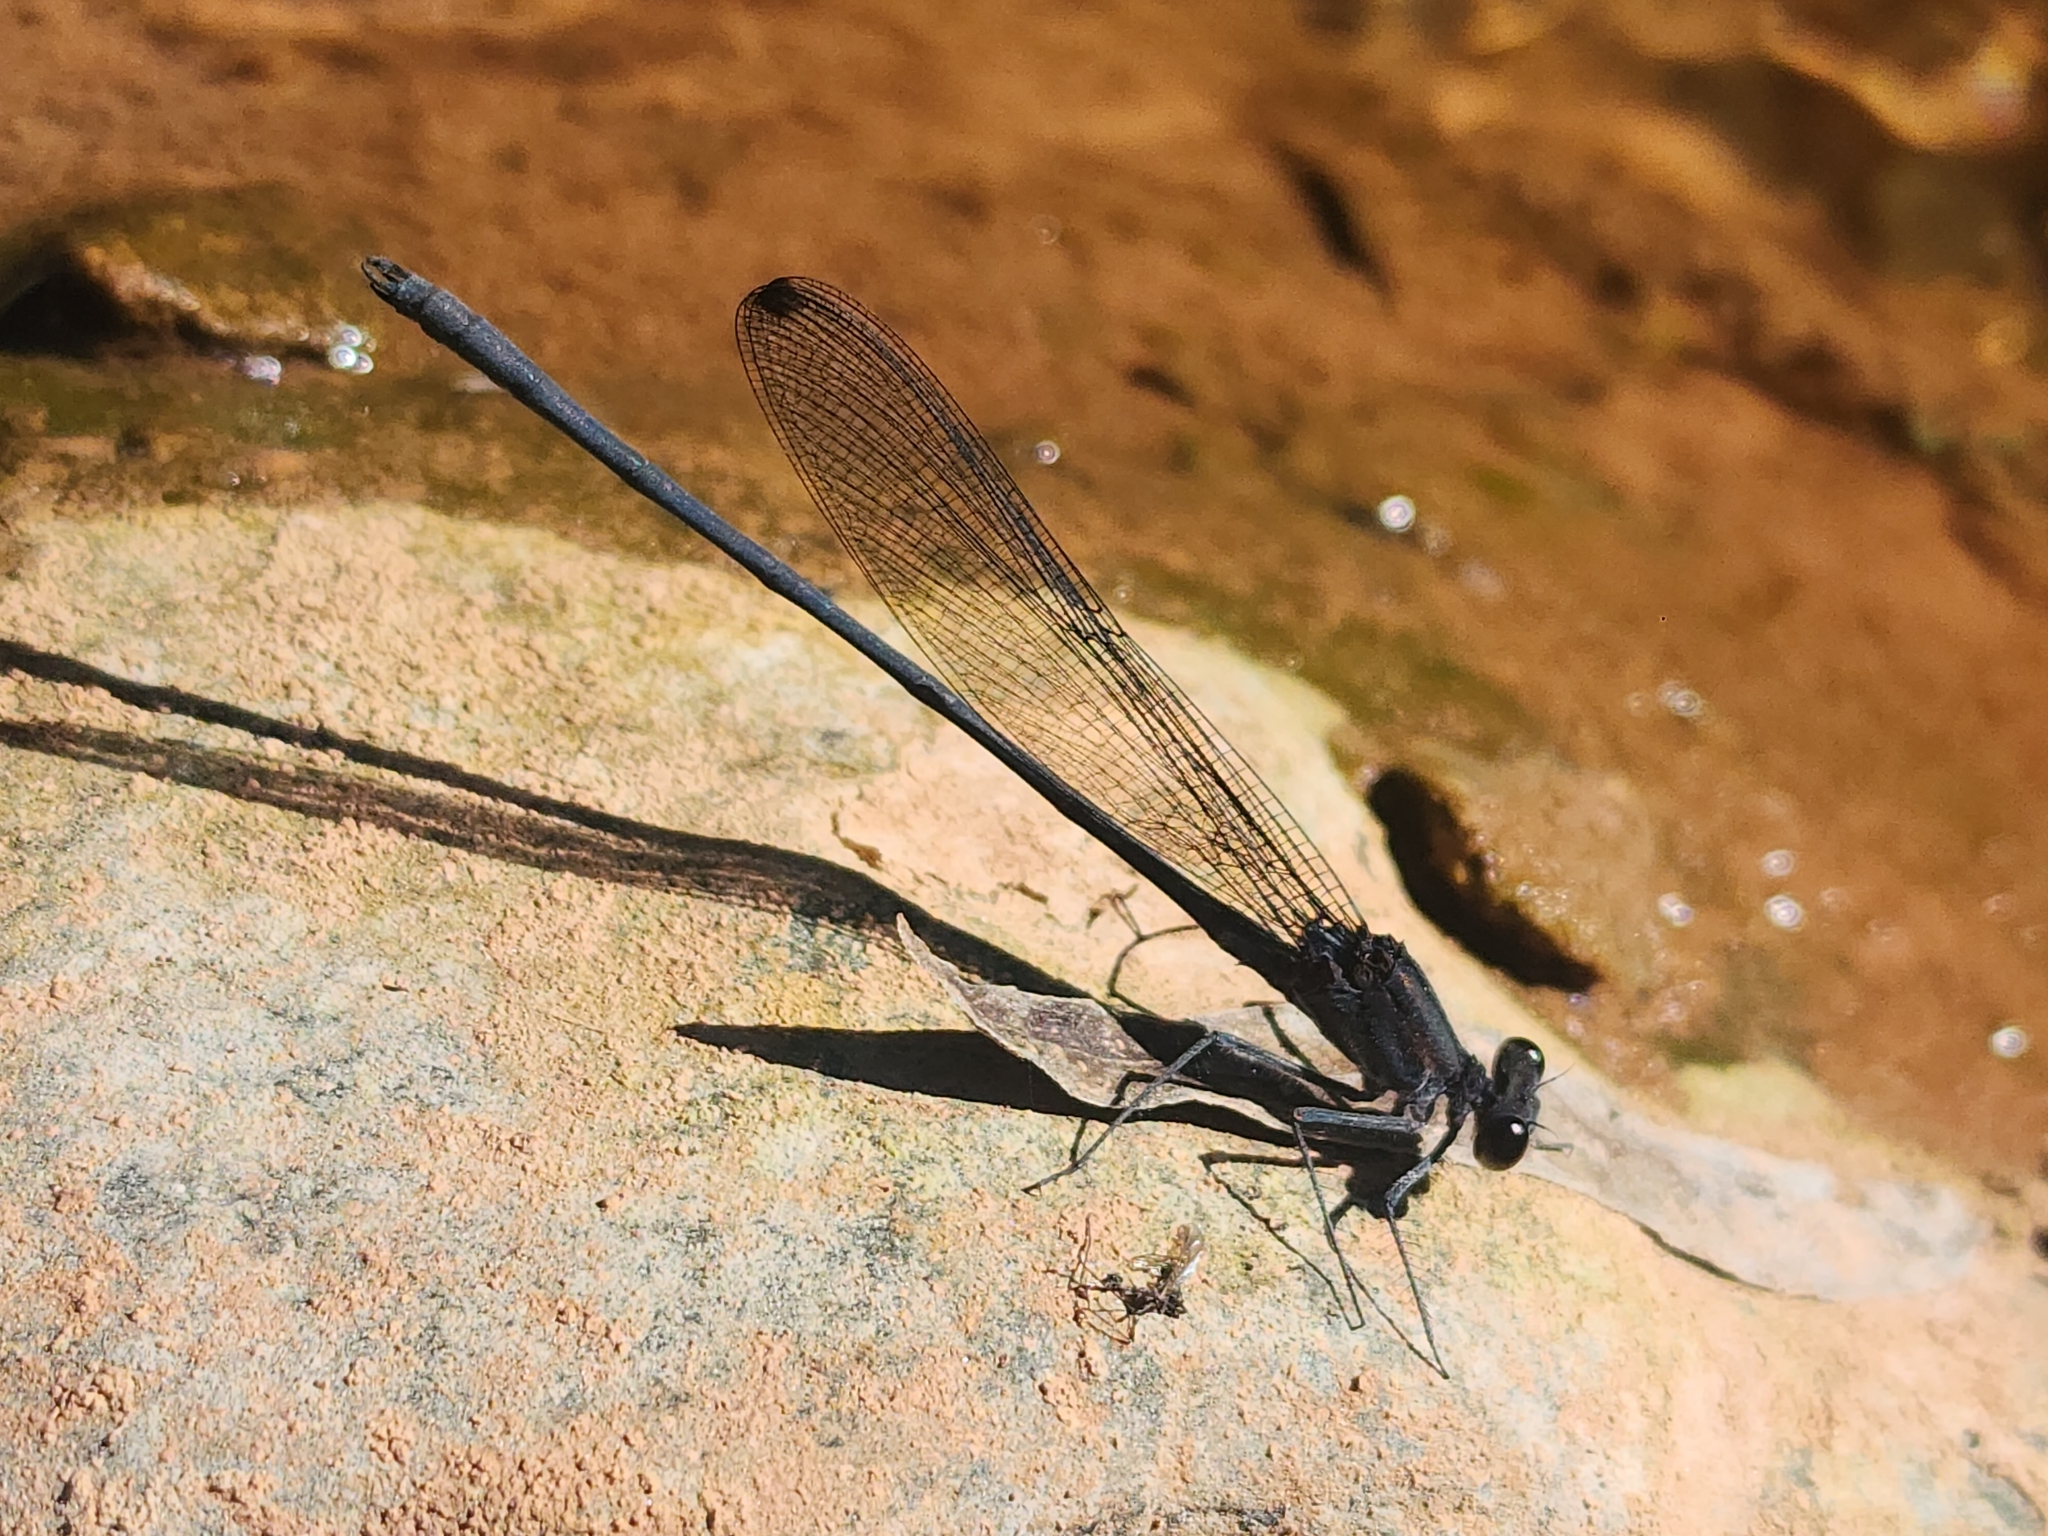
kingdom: Animalia
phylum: Arthropoda
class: Insecta
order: Odonata
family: Calopterygidae
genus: Mnesarete
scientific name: Mnesarete grisea
